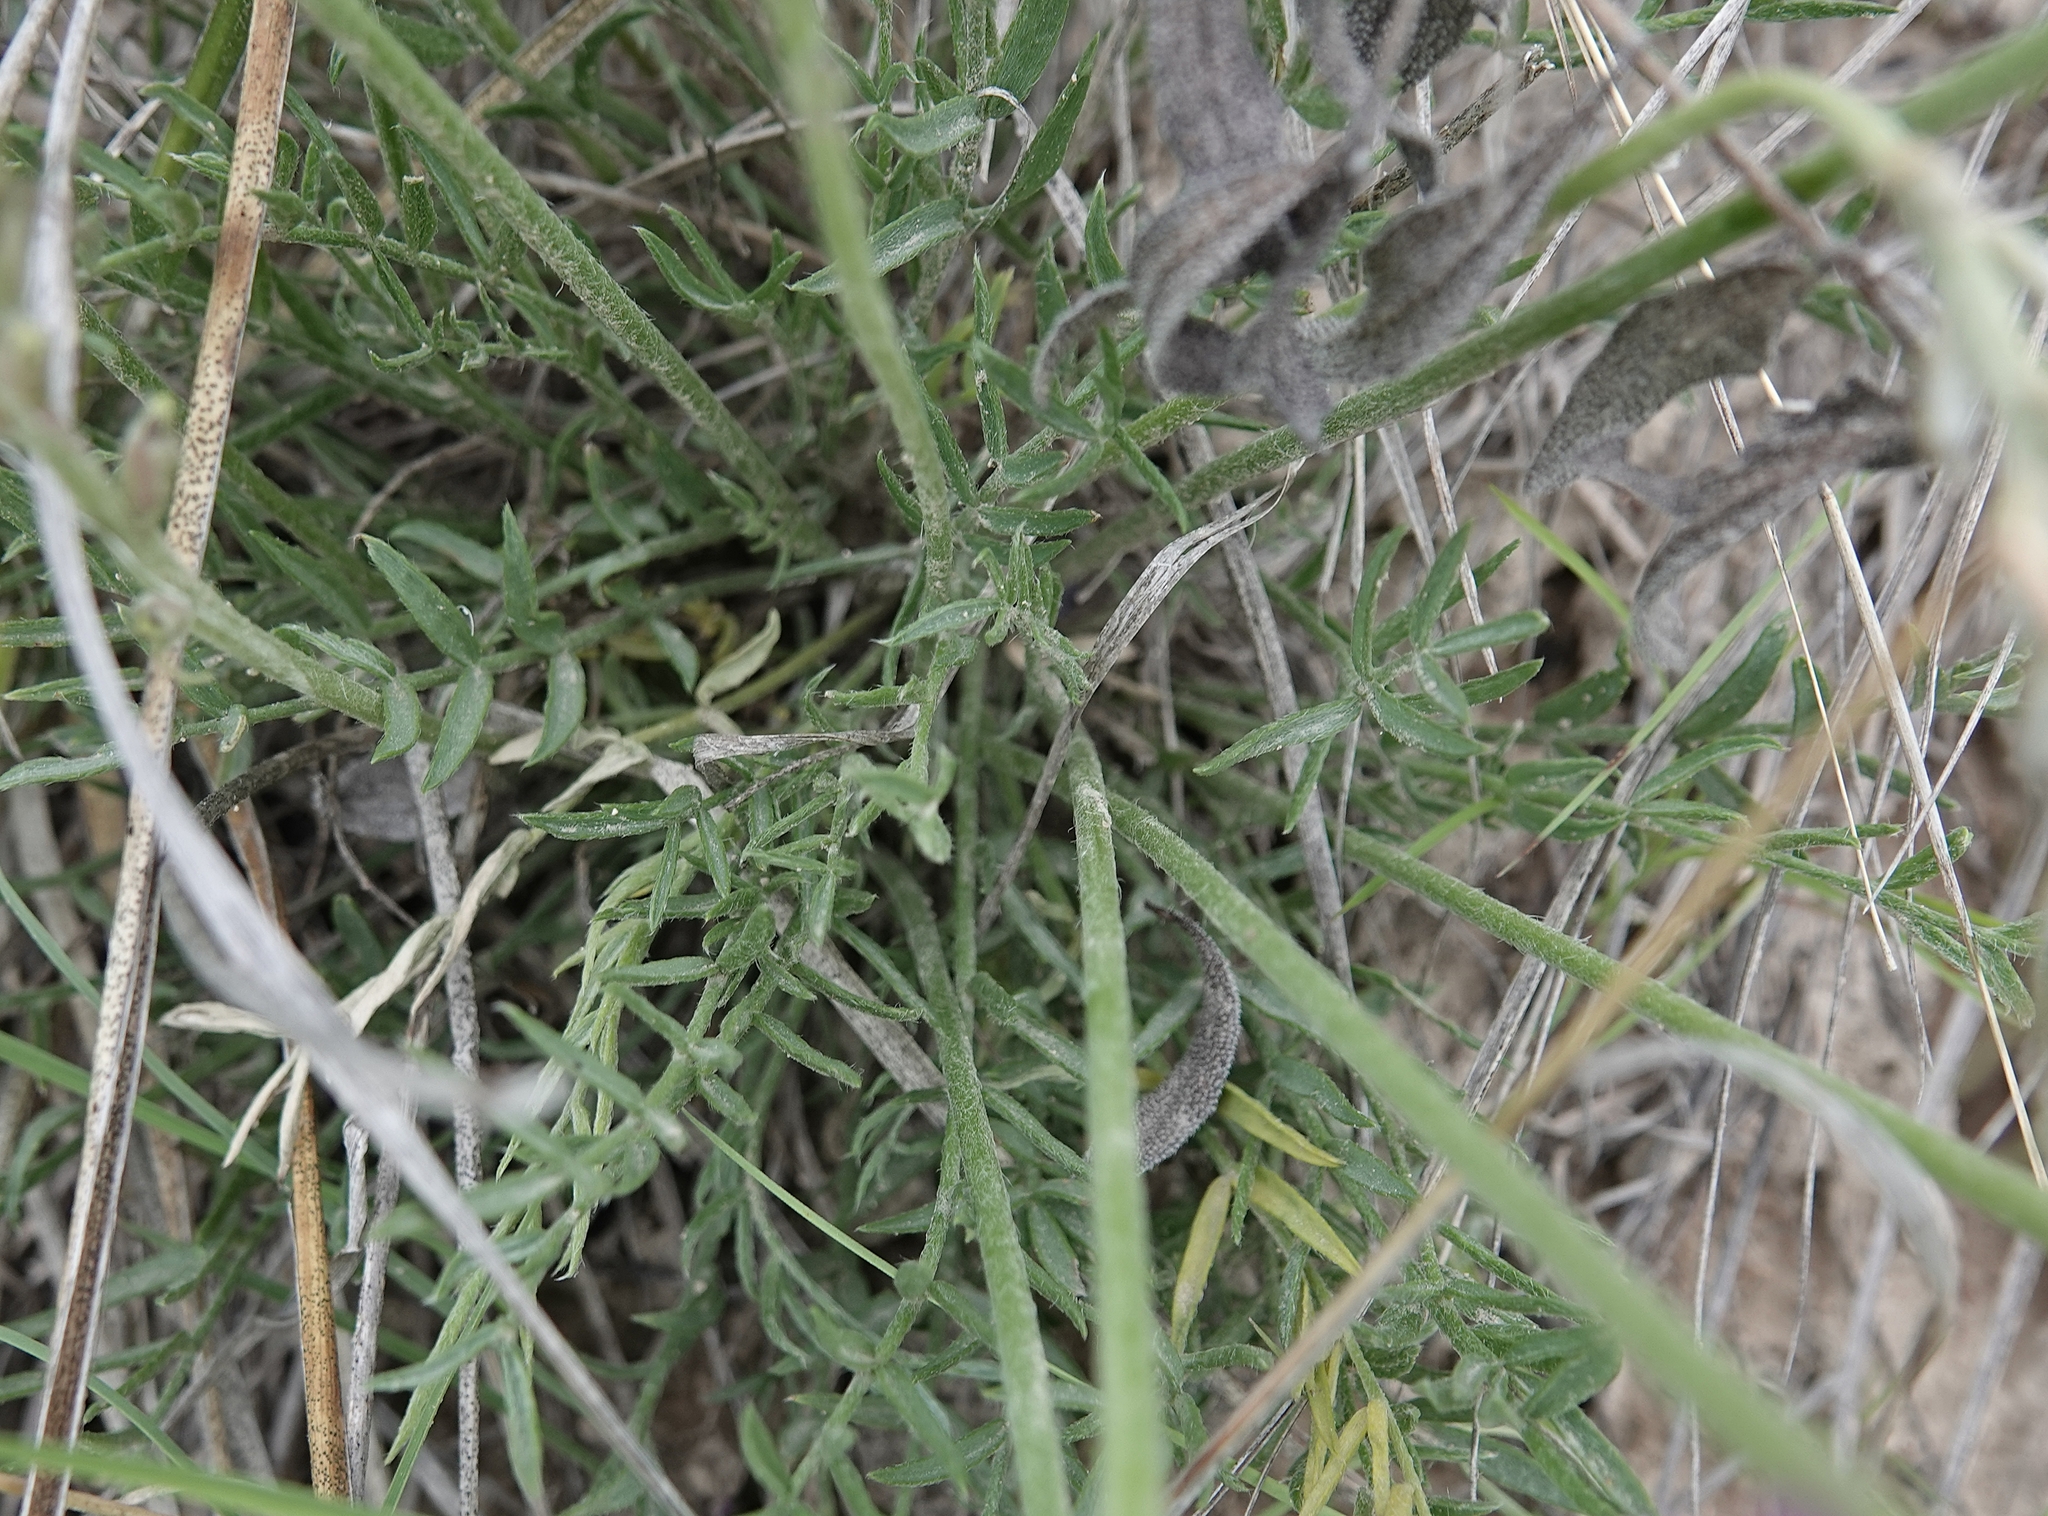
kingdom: Plantae
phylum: Tracheophyta
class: Magnoliopsida
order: Fabales
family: Fabaceae
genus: Oxytropis
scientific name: Oxytropis lambertii
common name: Purple locoweed
